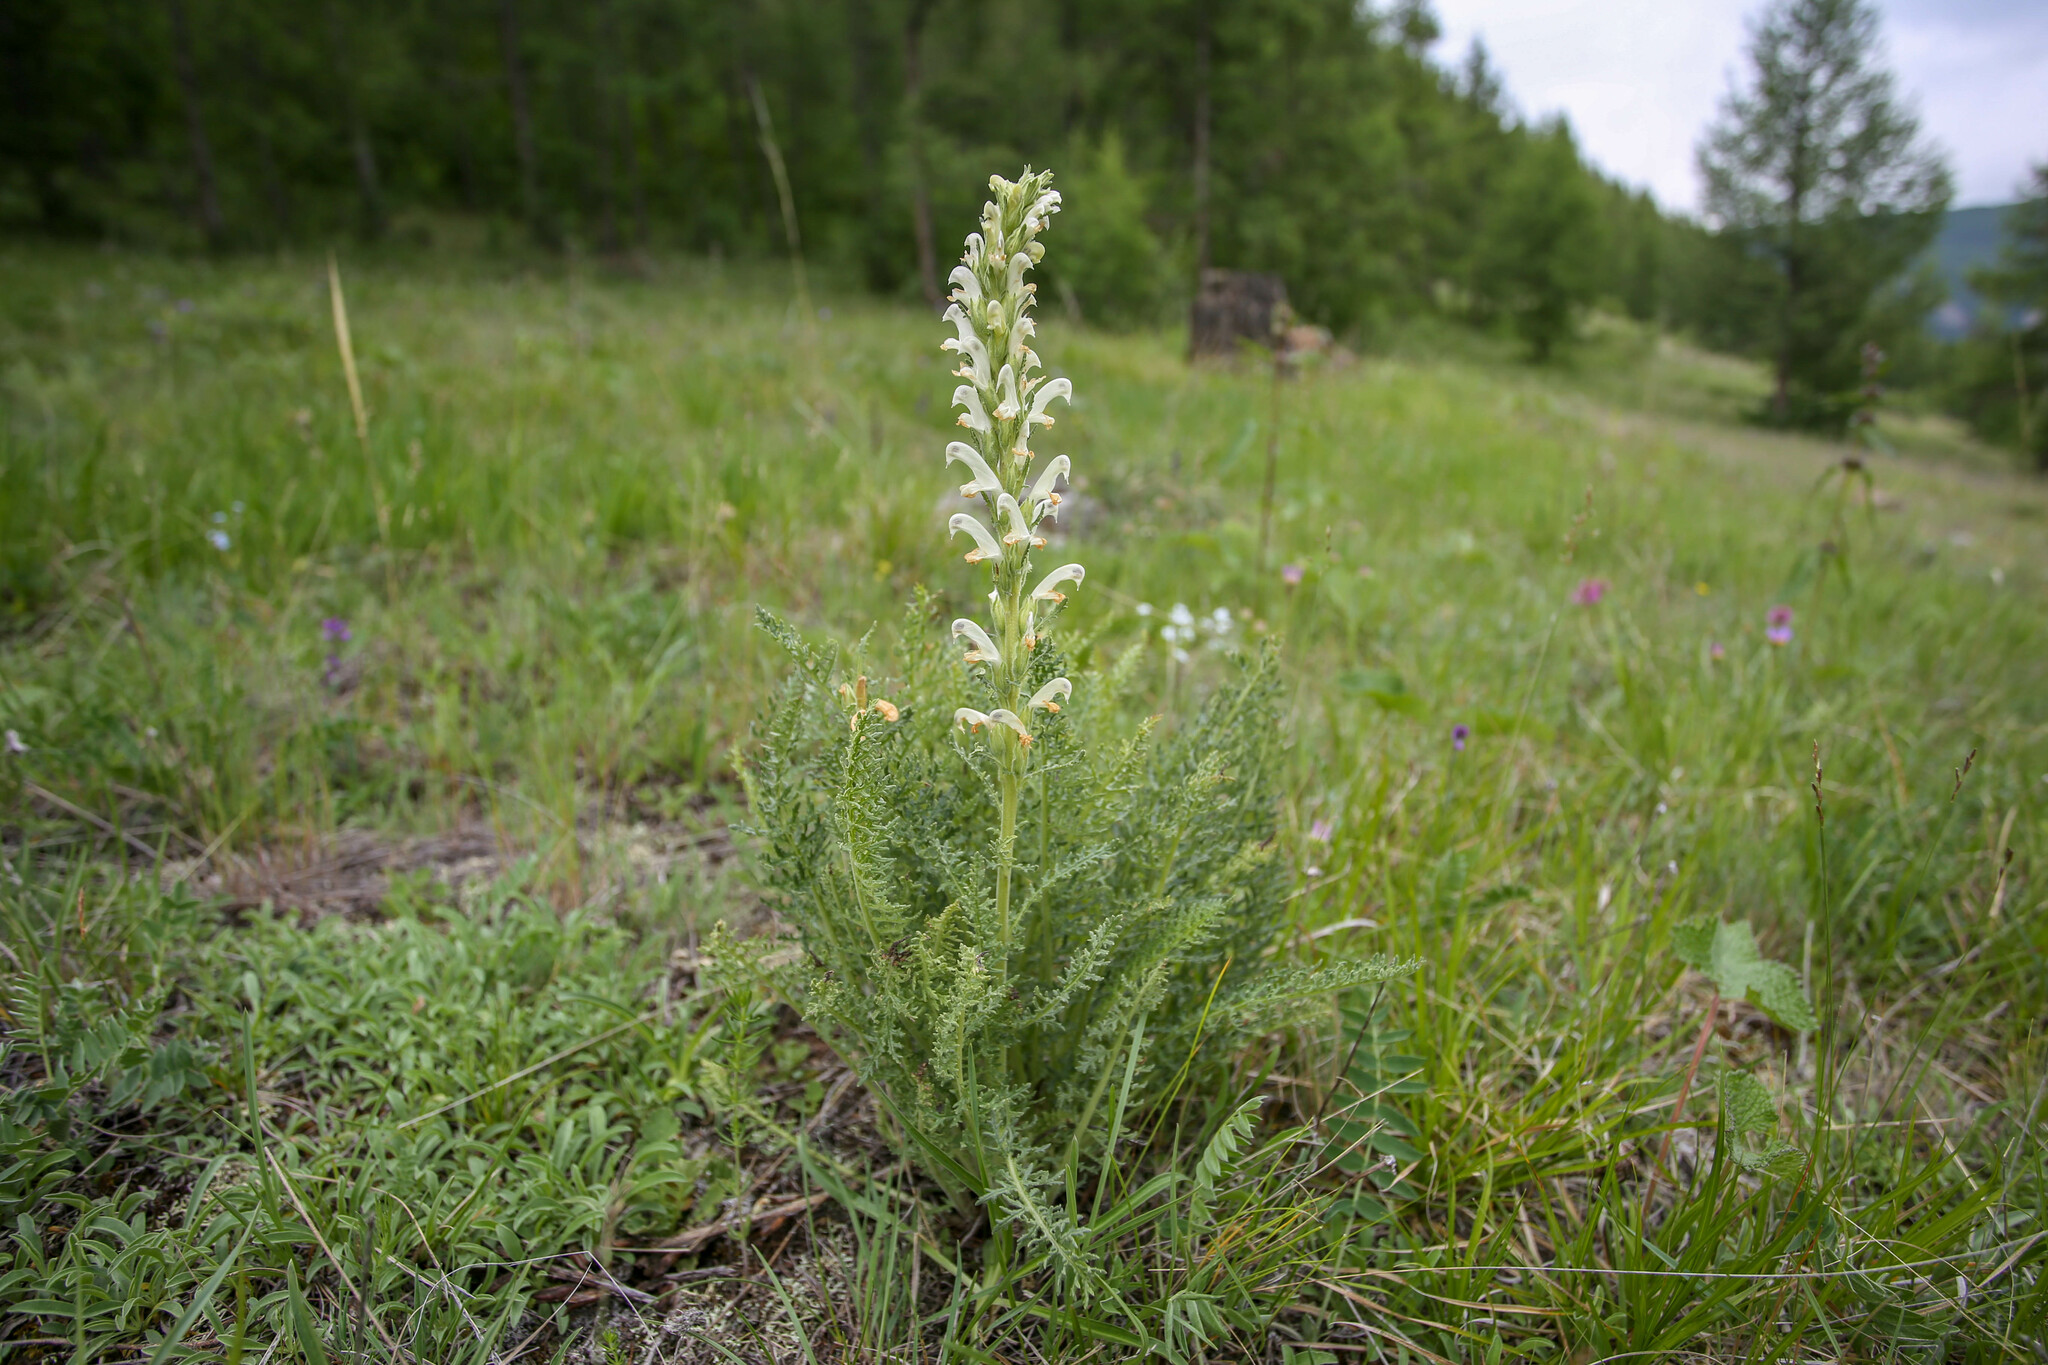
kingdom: Plantae
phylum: Tracheophyta
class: Magnoliopsida
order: Lamiales
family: Orobanchaceae
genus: Pedicularis
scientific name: Pedicularis achilleifolia
